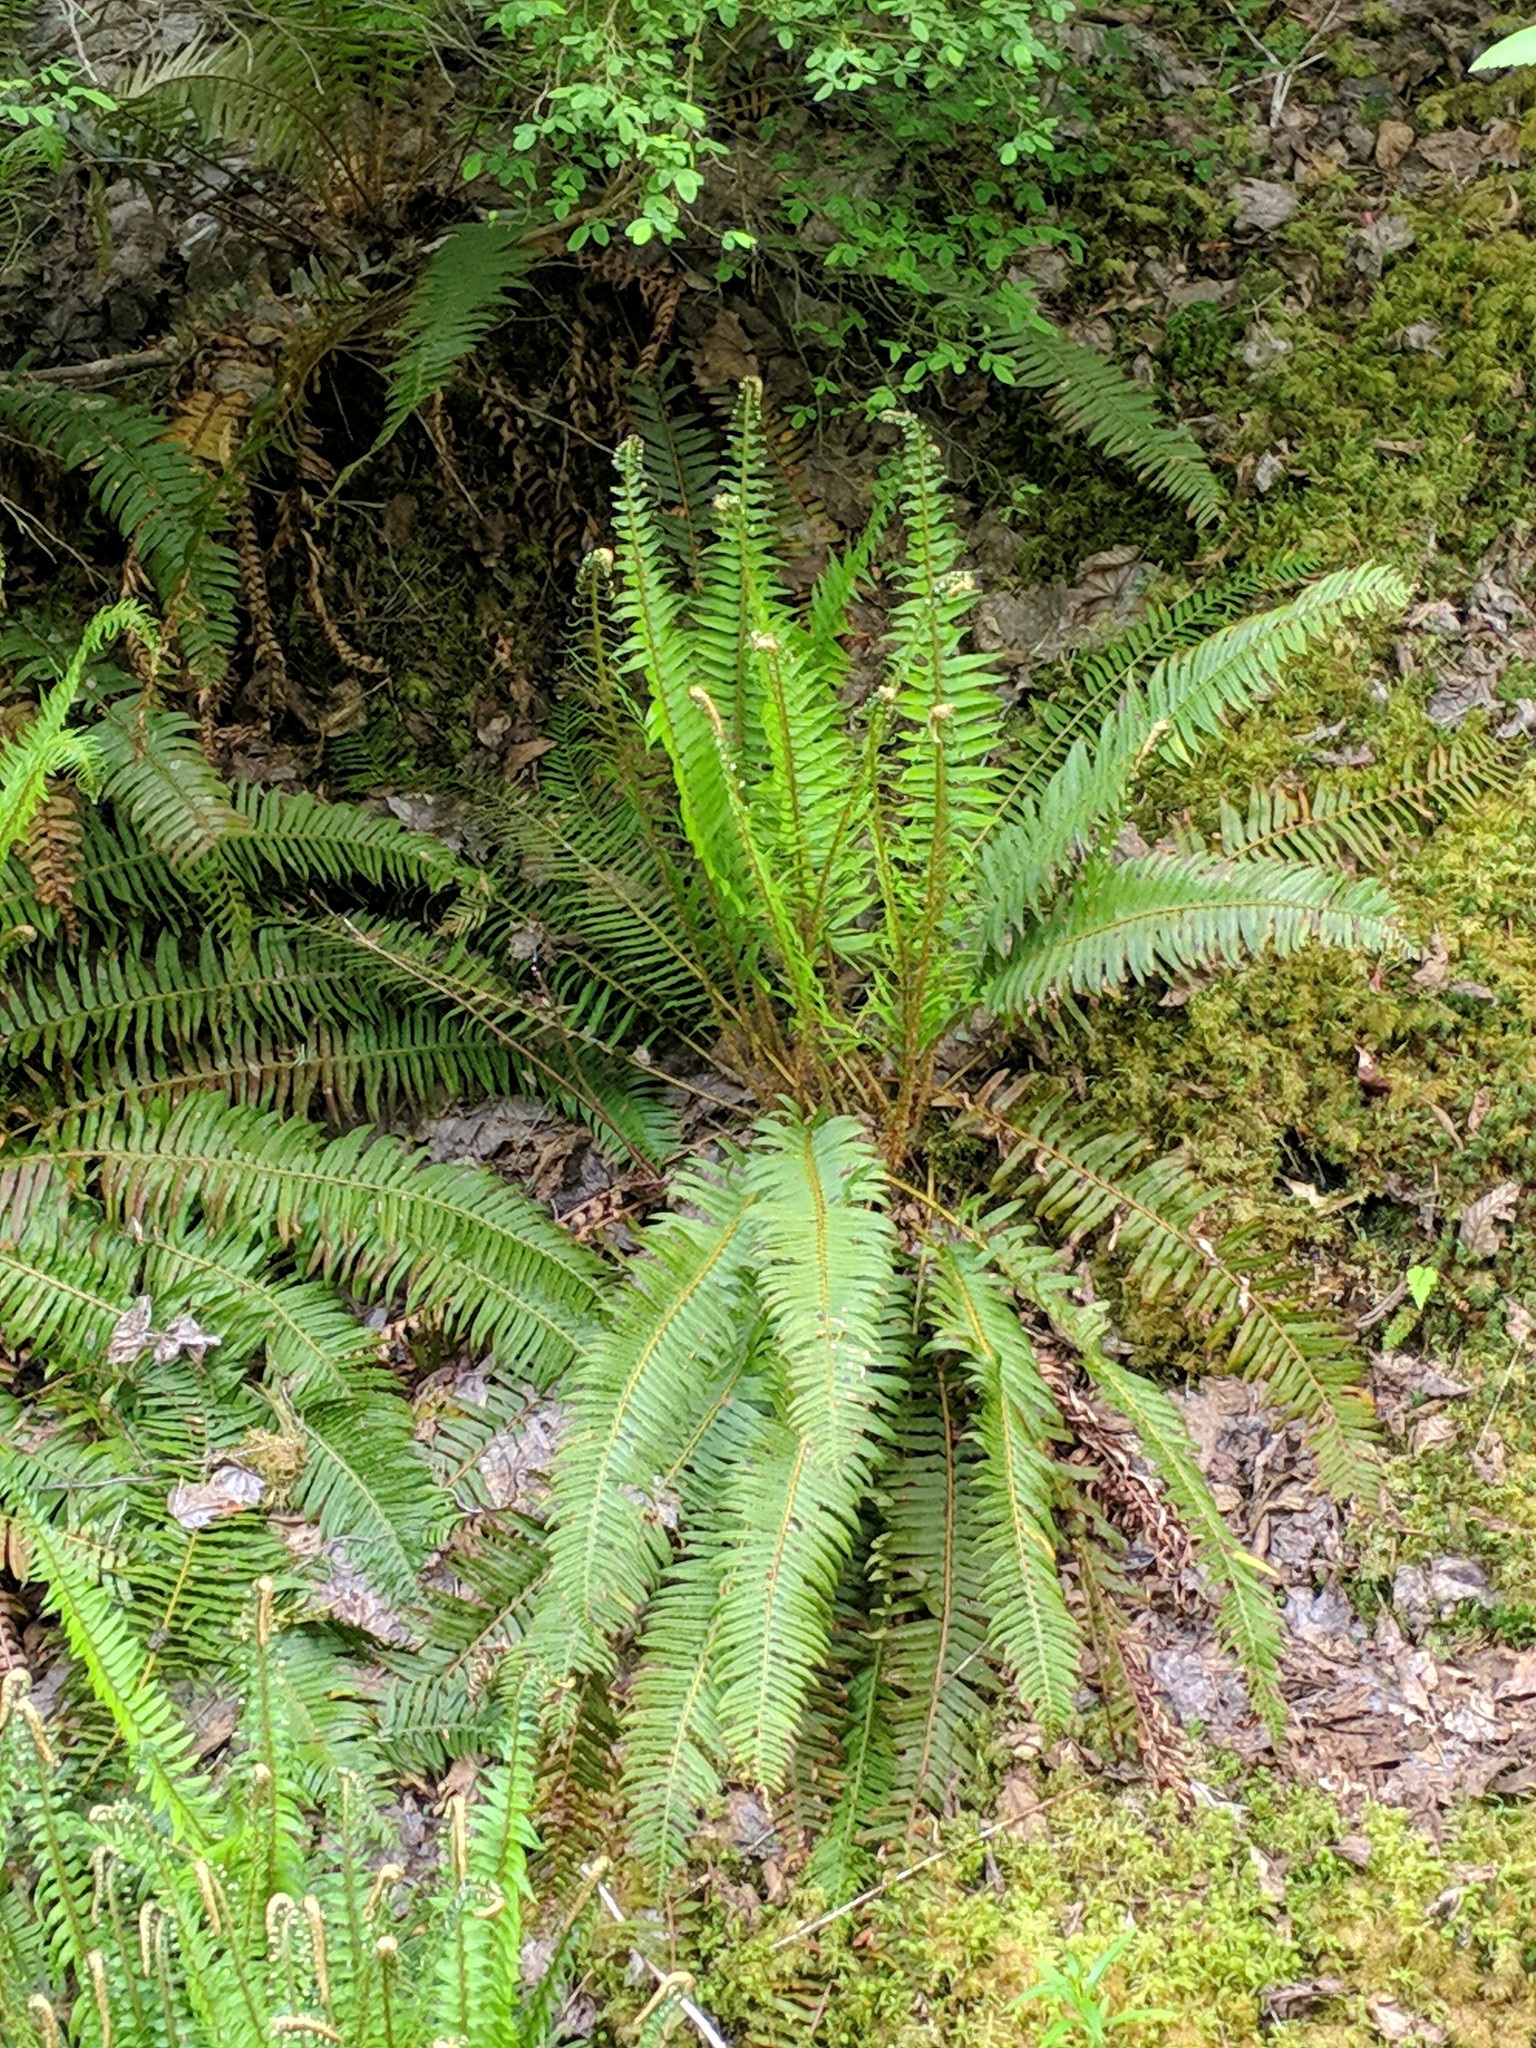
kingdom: Plantae
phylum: Tracheophyta
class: Polypodiopsida
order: Polypodiales
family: Dryopteridaceae
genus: Polystichum
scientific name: Polystichum munitum
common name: Western sword-fern
